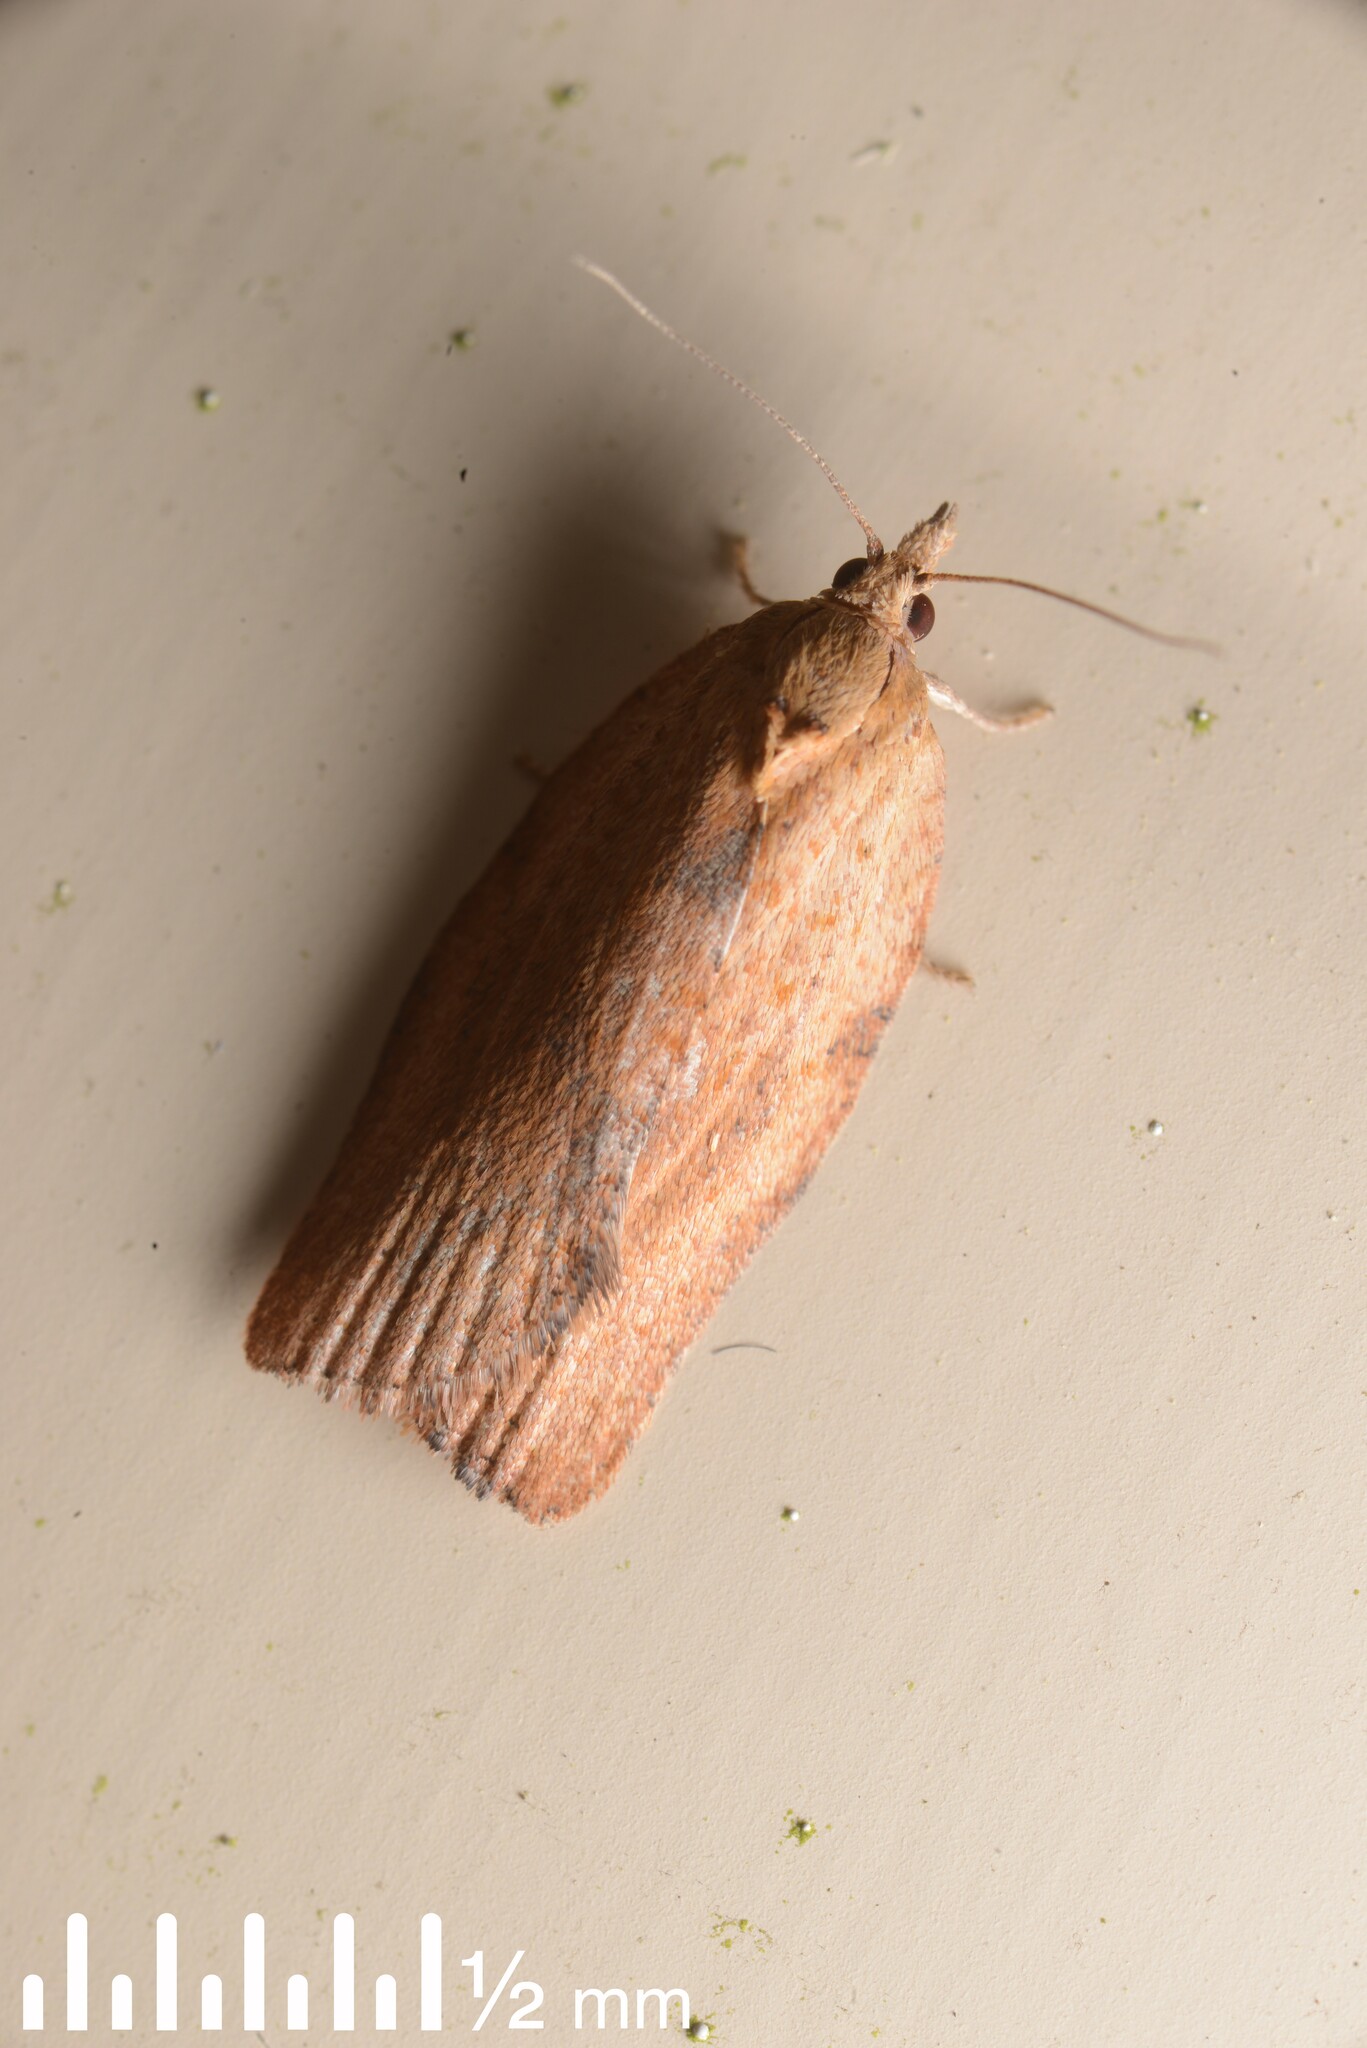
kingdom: Animalia
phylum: Arthropoda
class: Insecta
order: Lepidoptera
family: Tortricidae
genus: Epiphyas
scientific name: Epiphyas postvittana
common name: Light brown apple moth
